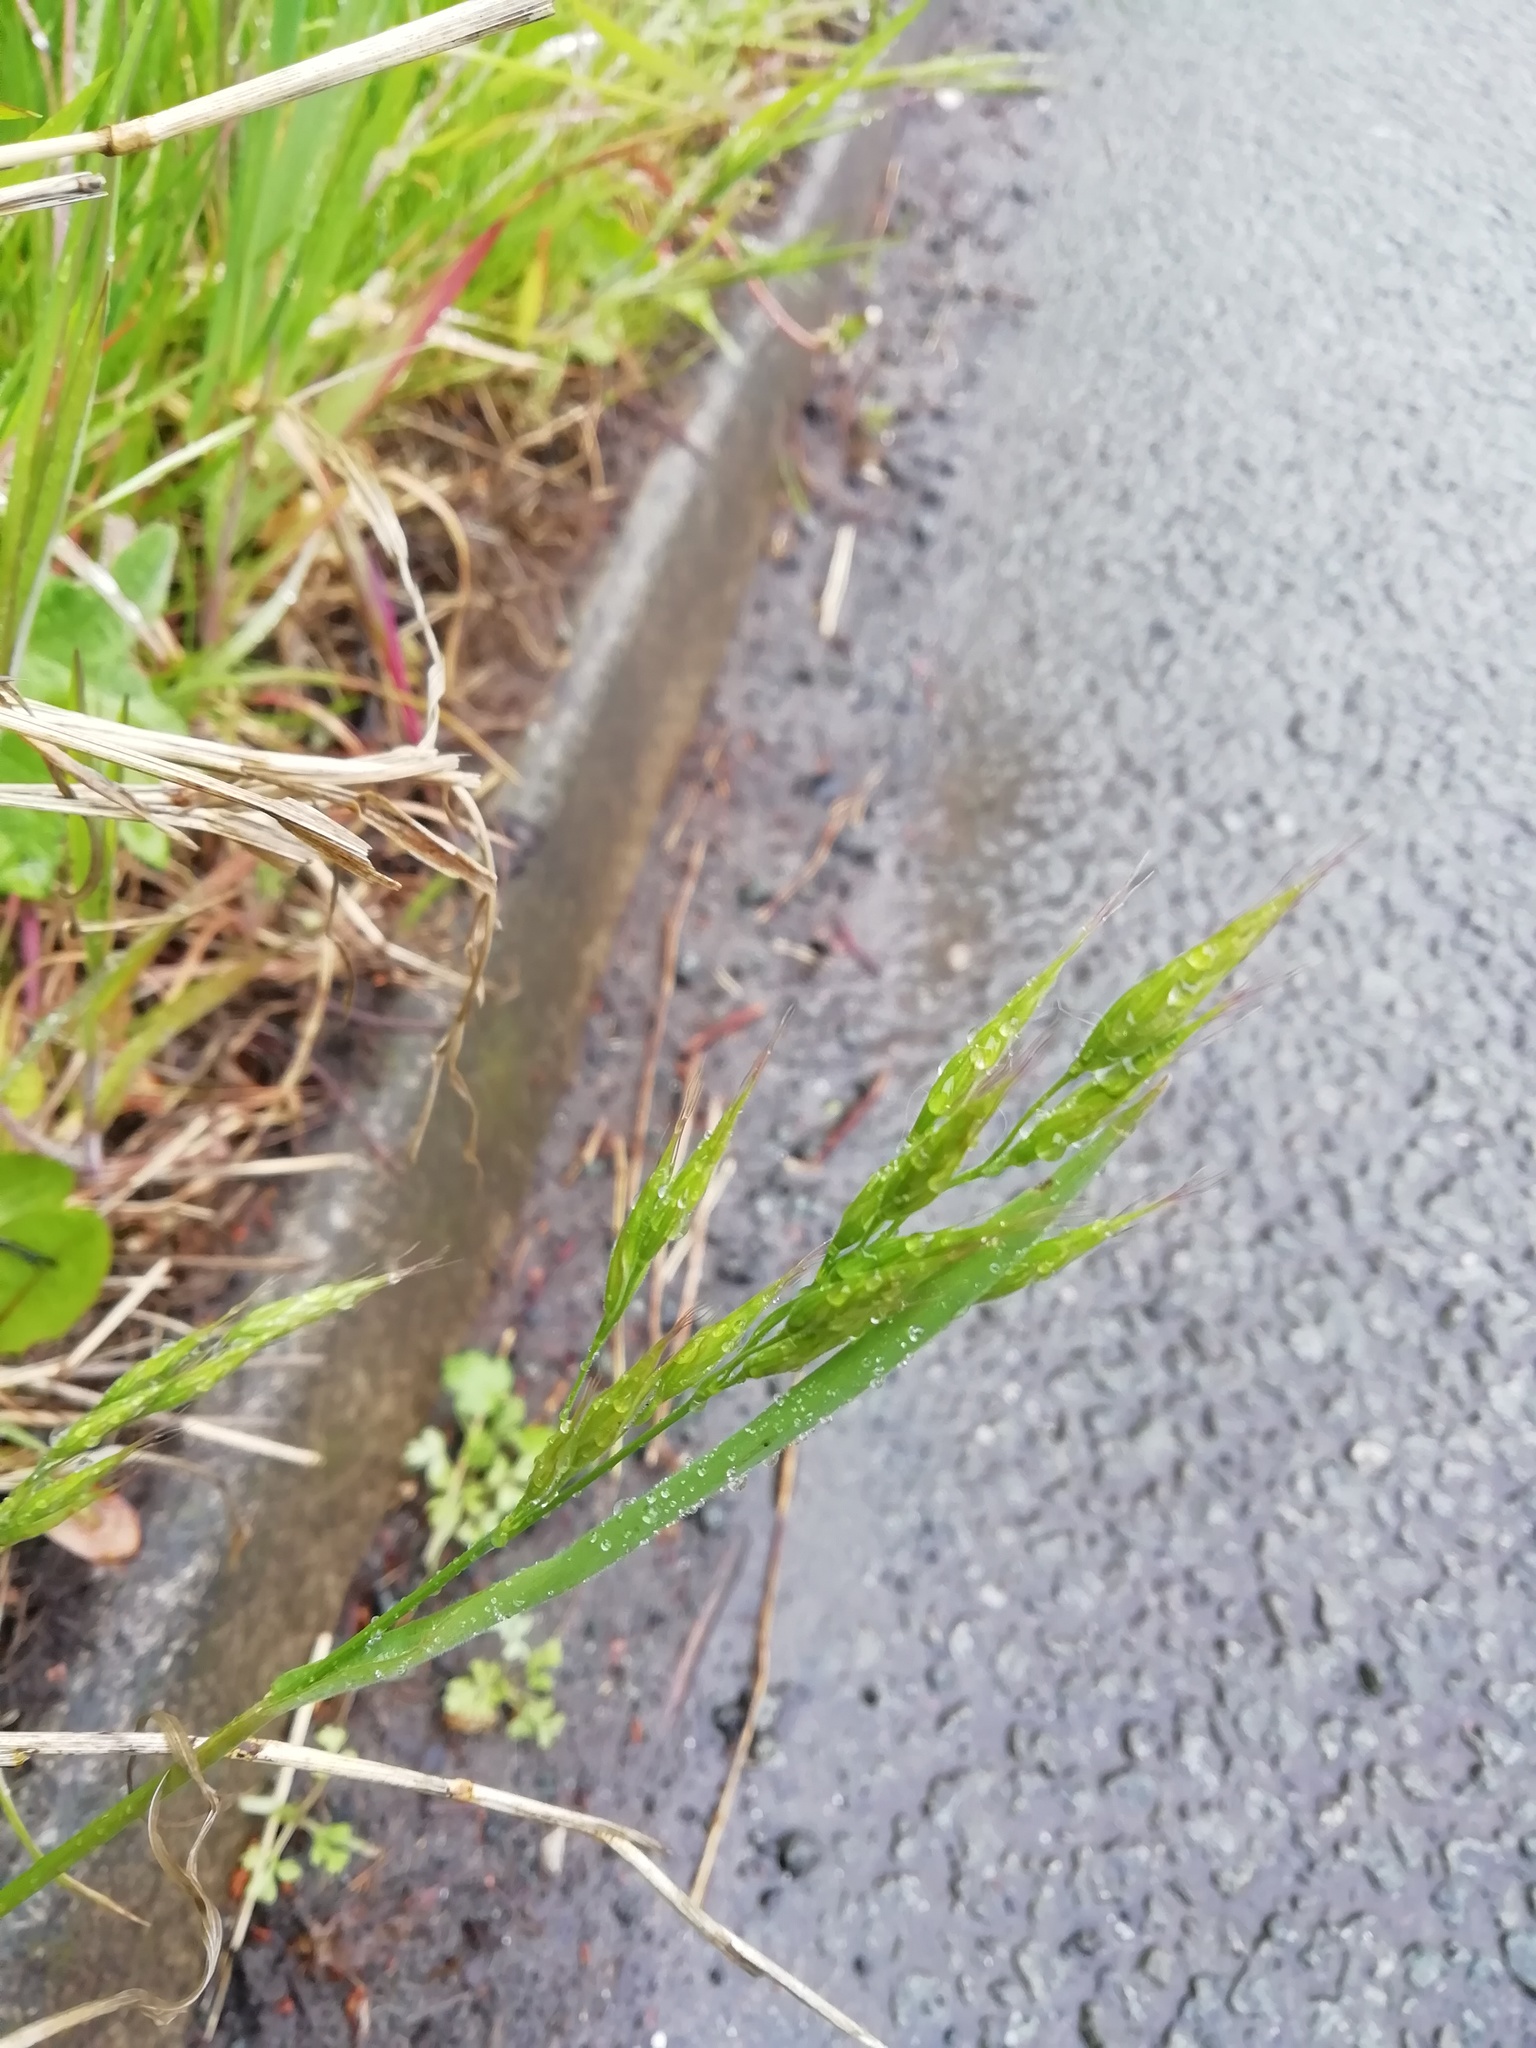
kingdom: Plantae
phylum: Tracheophyta
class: Liliopsida
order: Poales
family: Poaceae
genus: Bromus
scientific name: Bromus hordeaceus
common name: Soft brome
